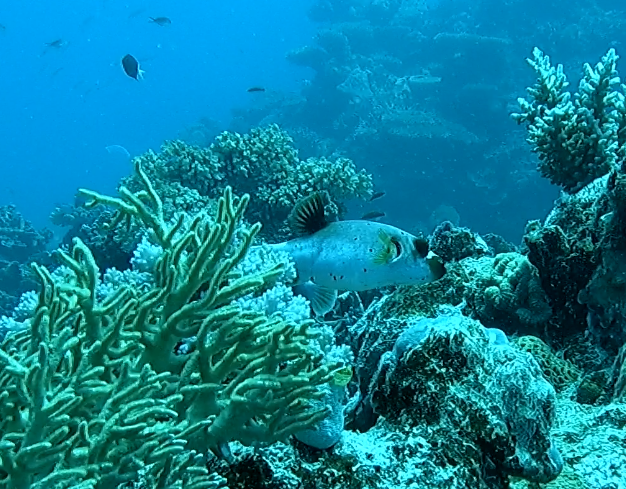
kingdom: Animalia
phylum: Chordata
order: Tetraodontiformes
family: Tetraodontidae
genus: Arothron
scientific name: Arothron nigropunctatus
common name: Black spotted blow fish
